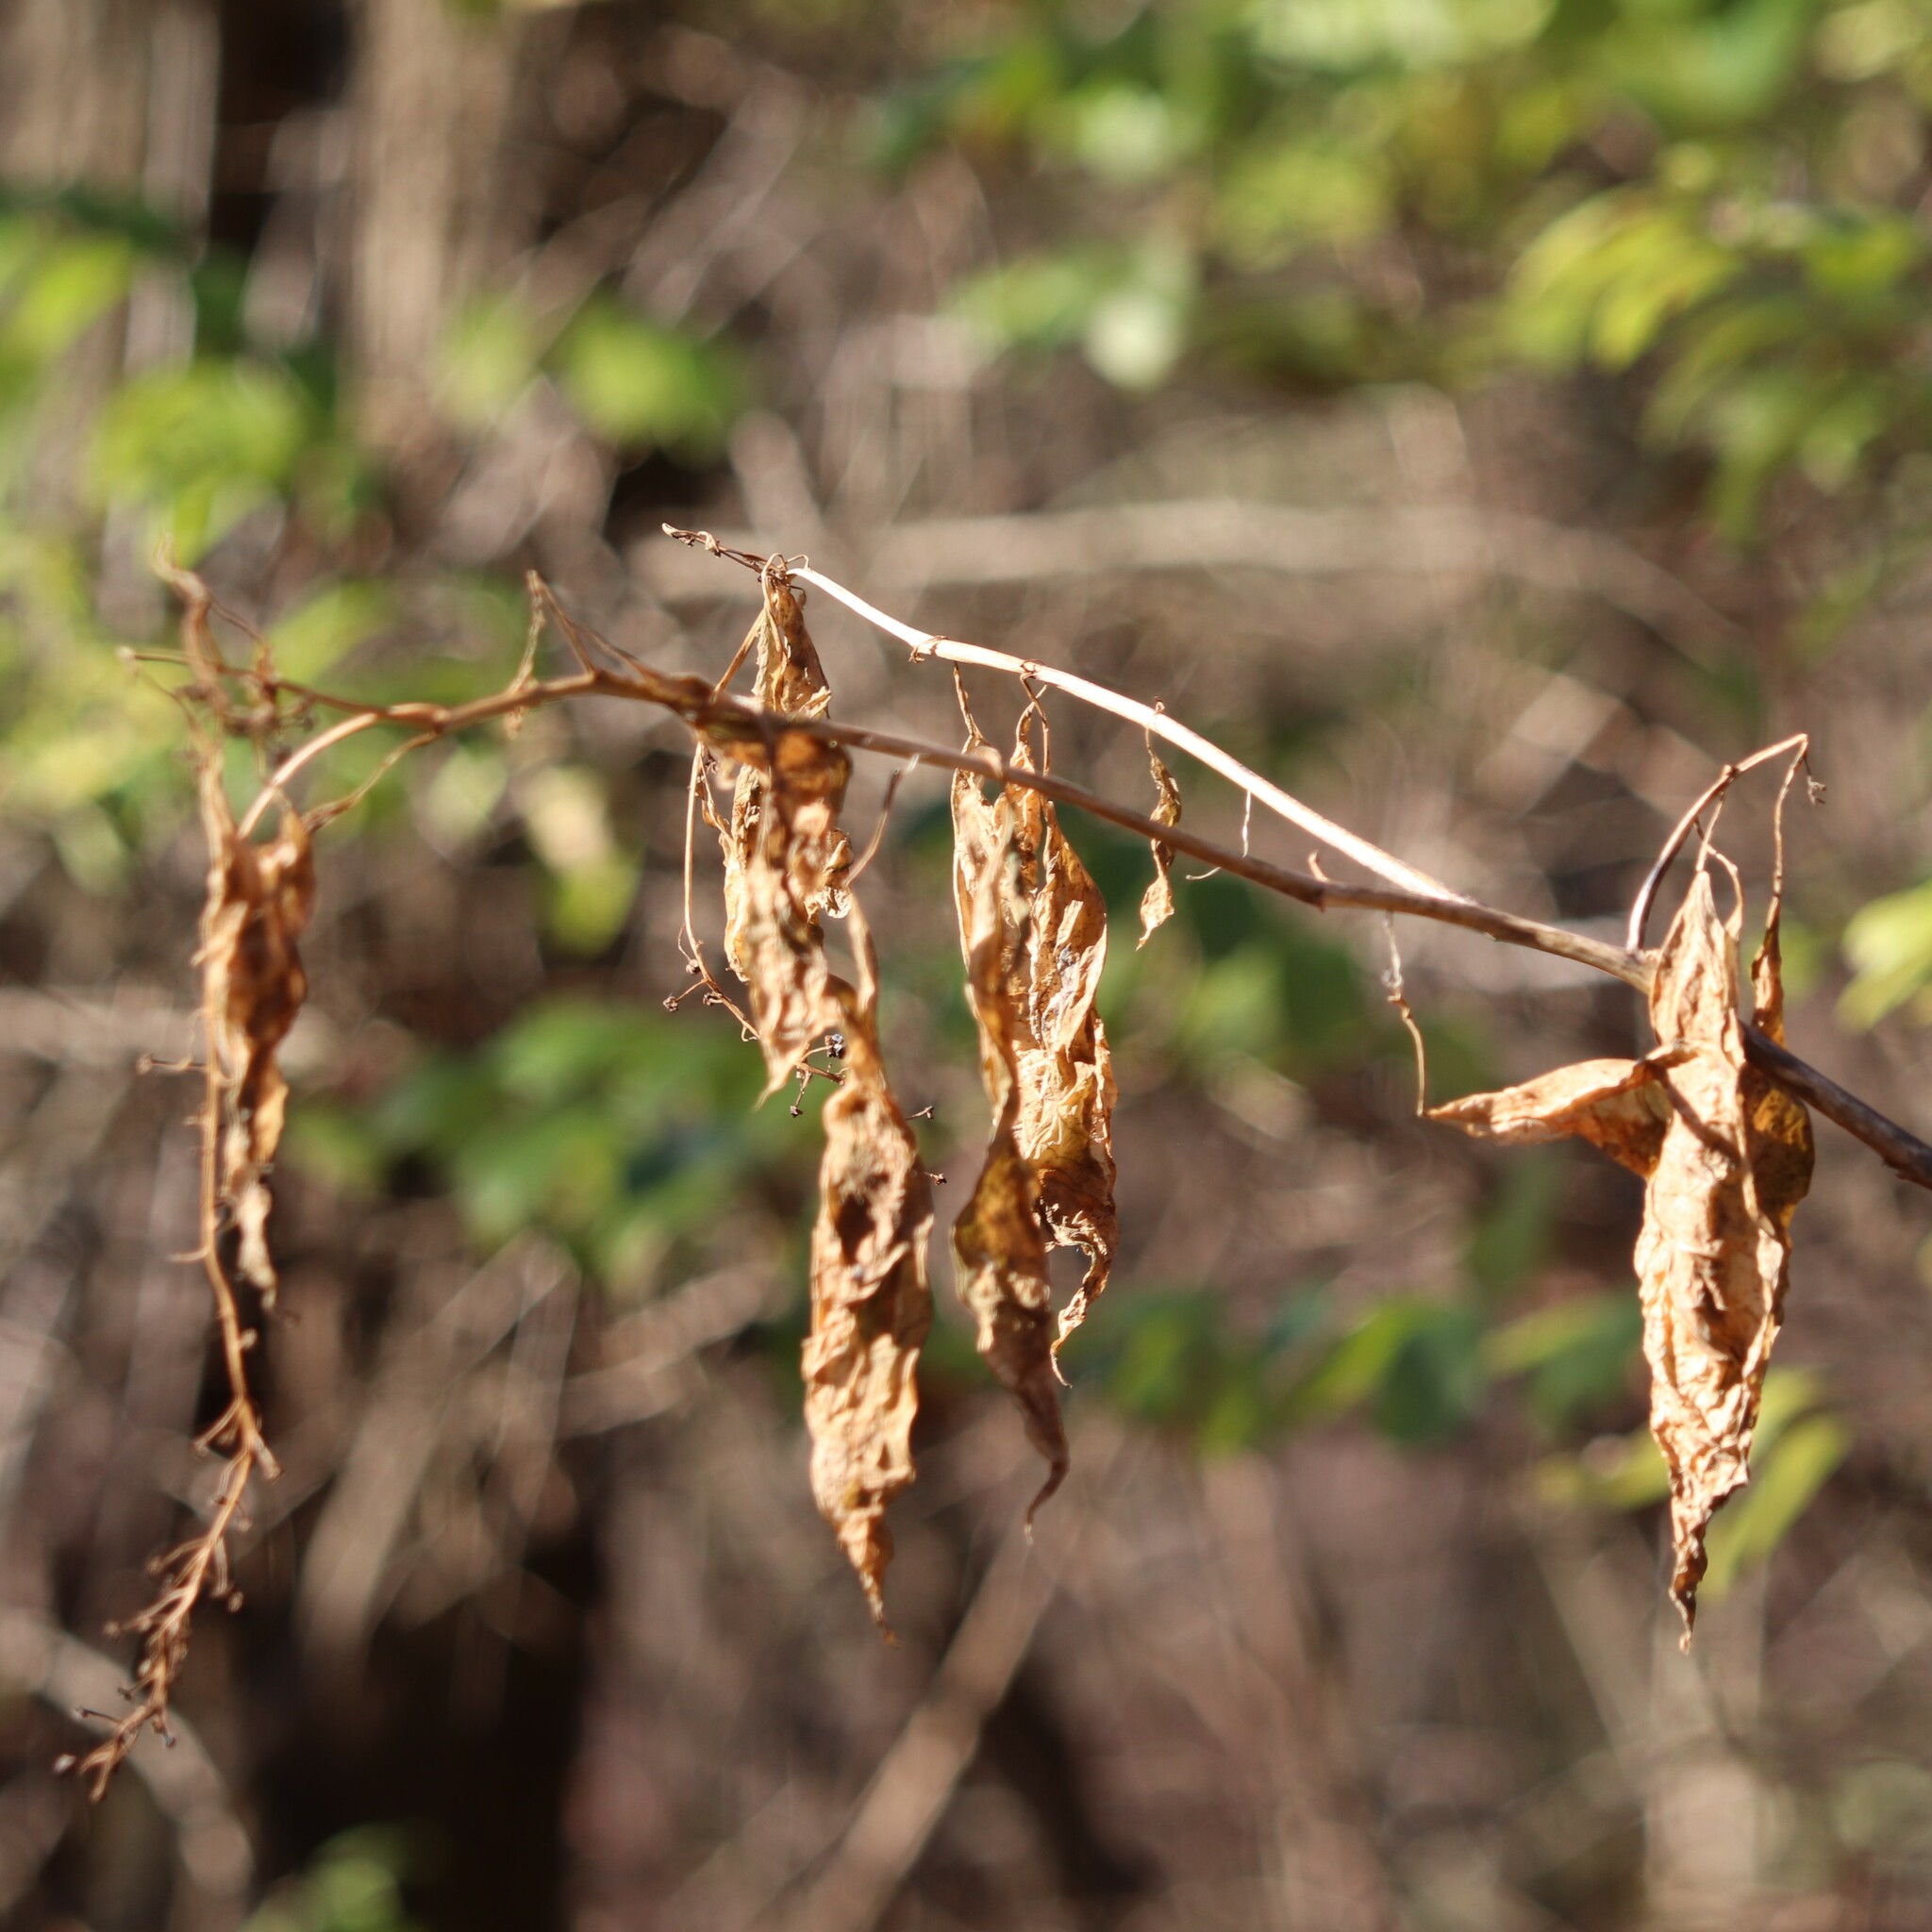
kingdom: Plantae
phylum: Tracheophyta
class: Magnoliopsida
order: Caryophyllales
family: Phytolaccaceae
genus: Phytolacca
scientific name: Phytolacca americana
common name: American pokeweed
